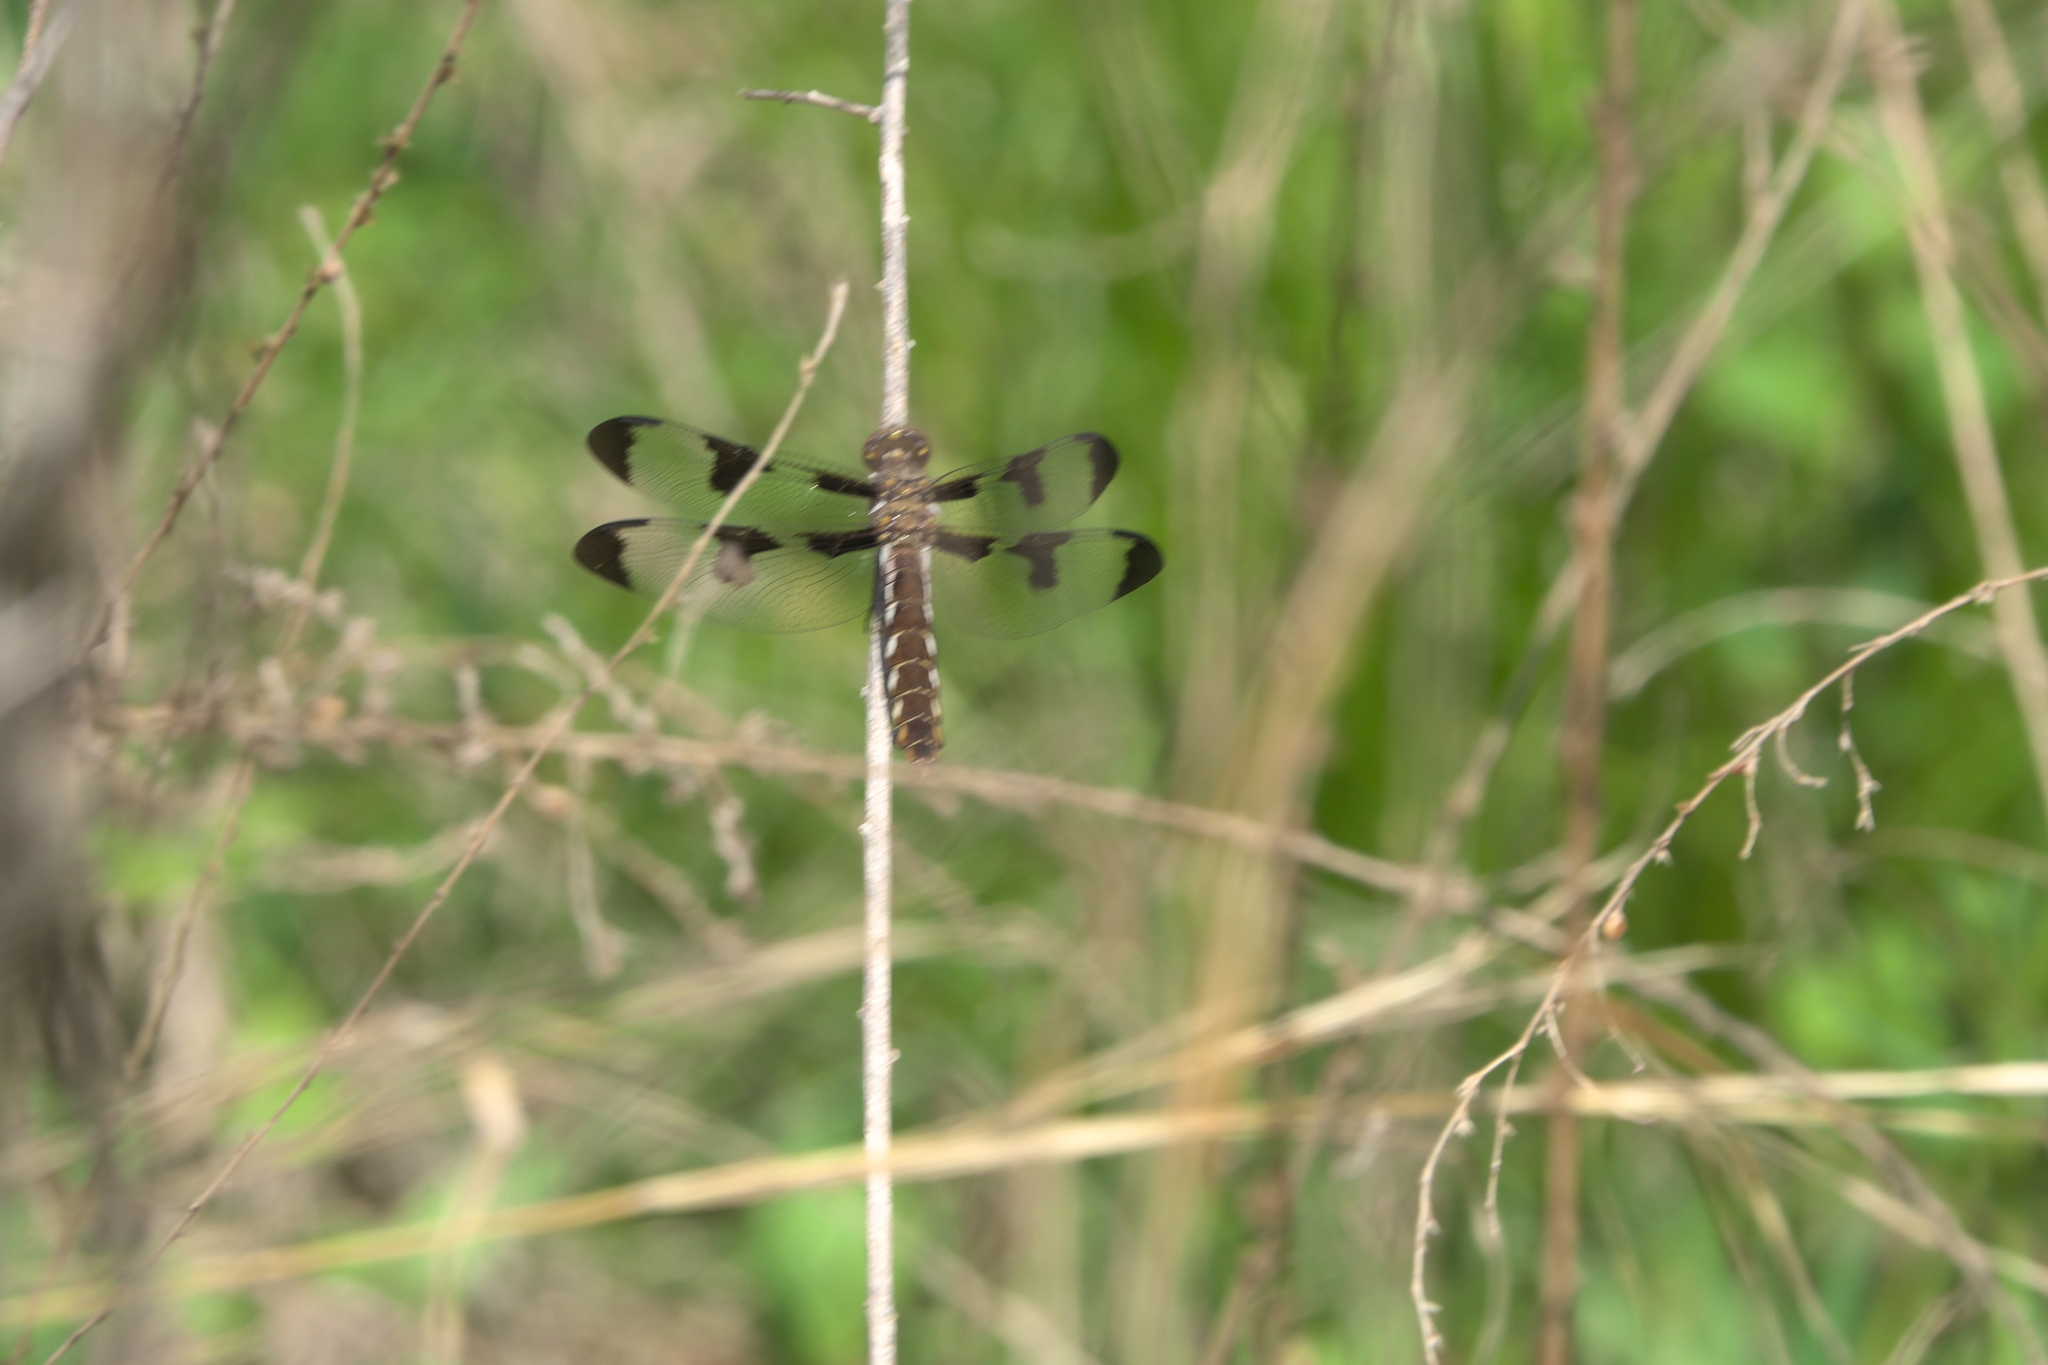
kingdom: Animalia
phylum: Arthropoda
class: Insecta
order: Odonata
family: Libellulidae
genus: Plathemis
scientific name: Plathemis lydia
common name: Common whitetail
